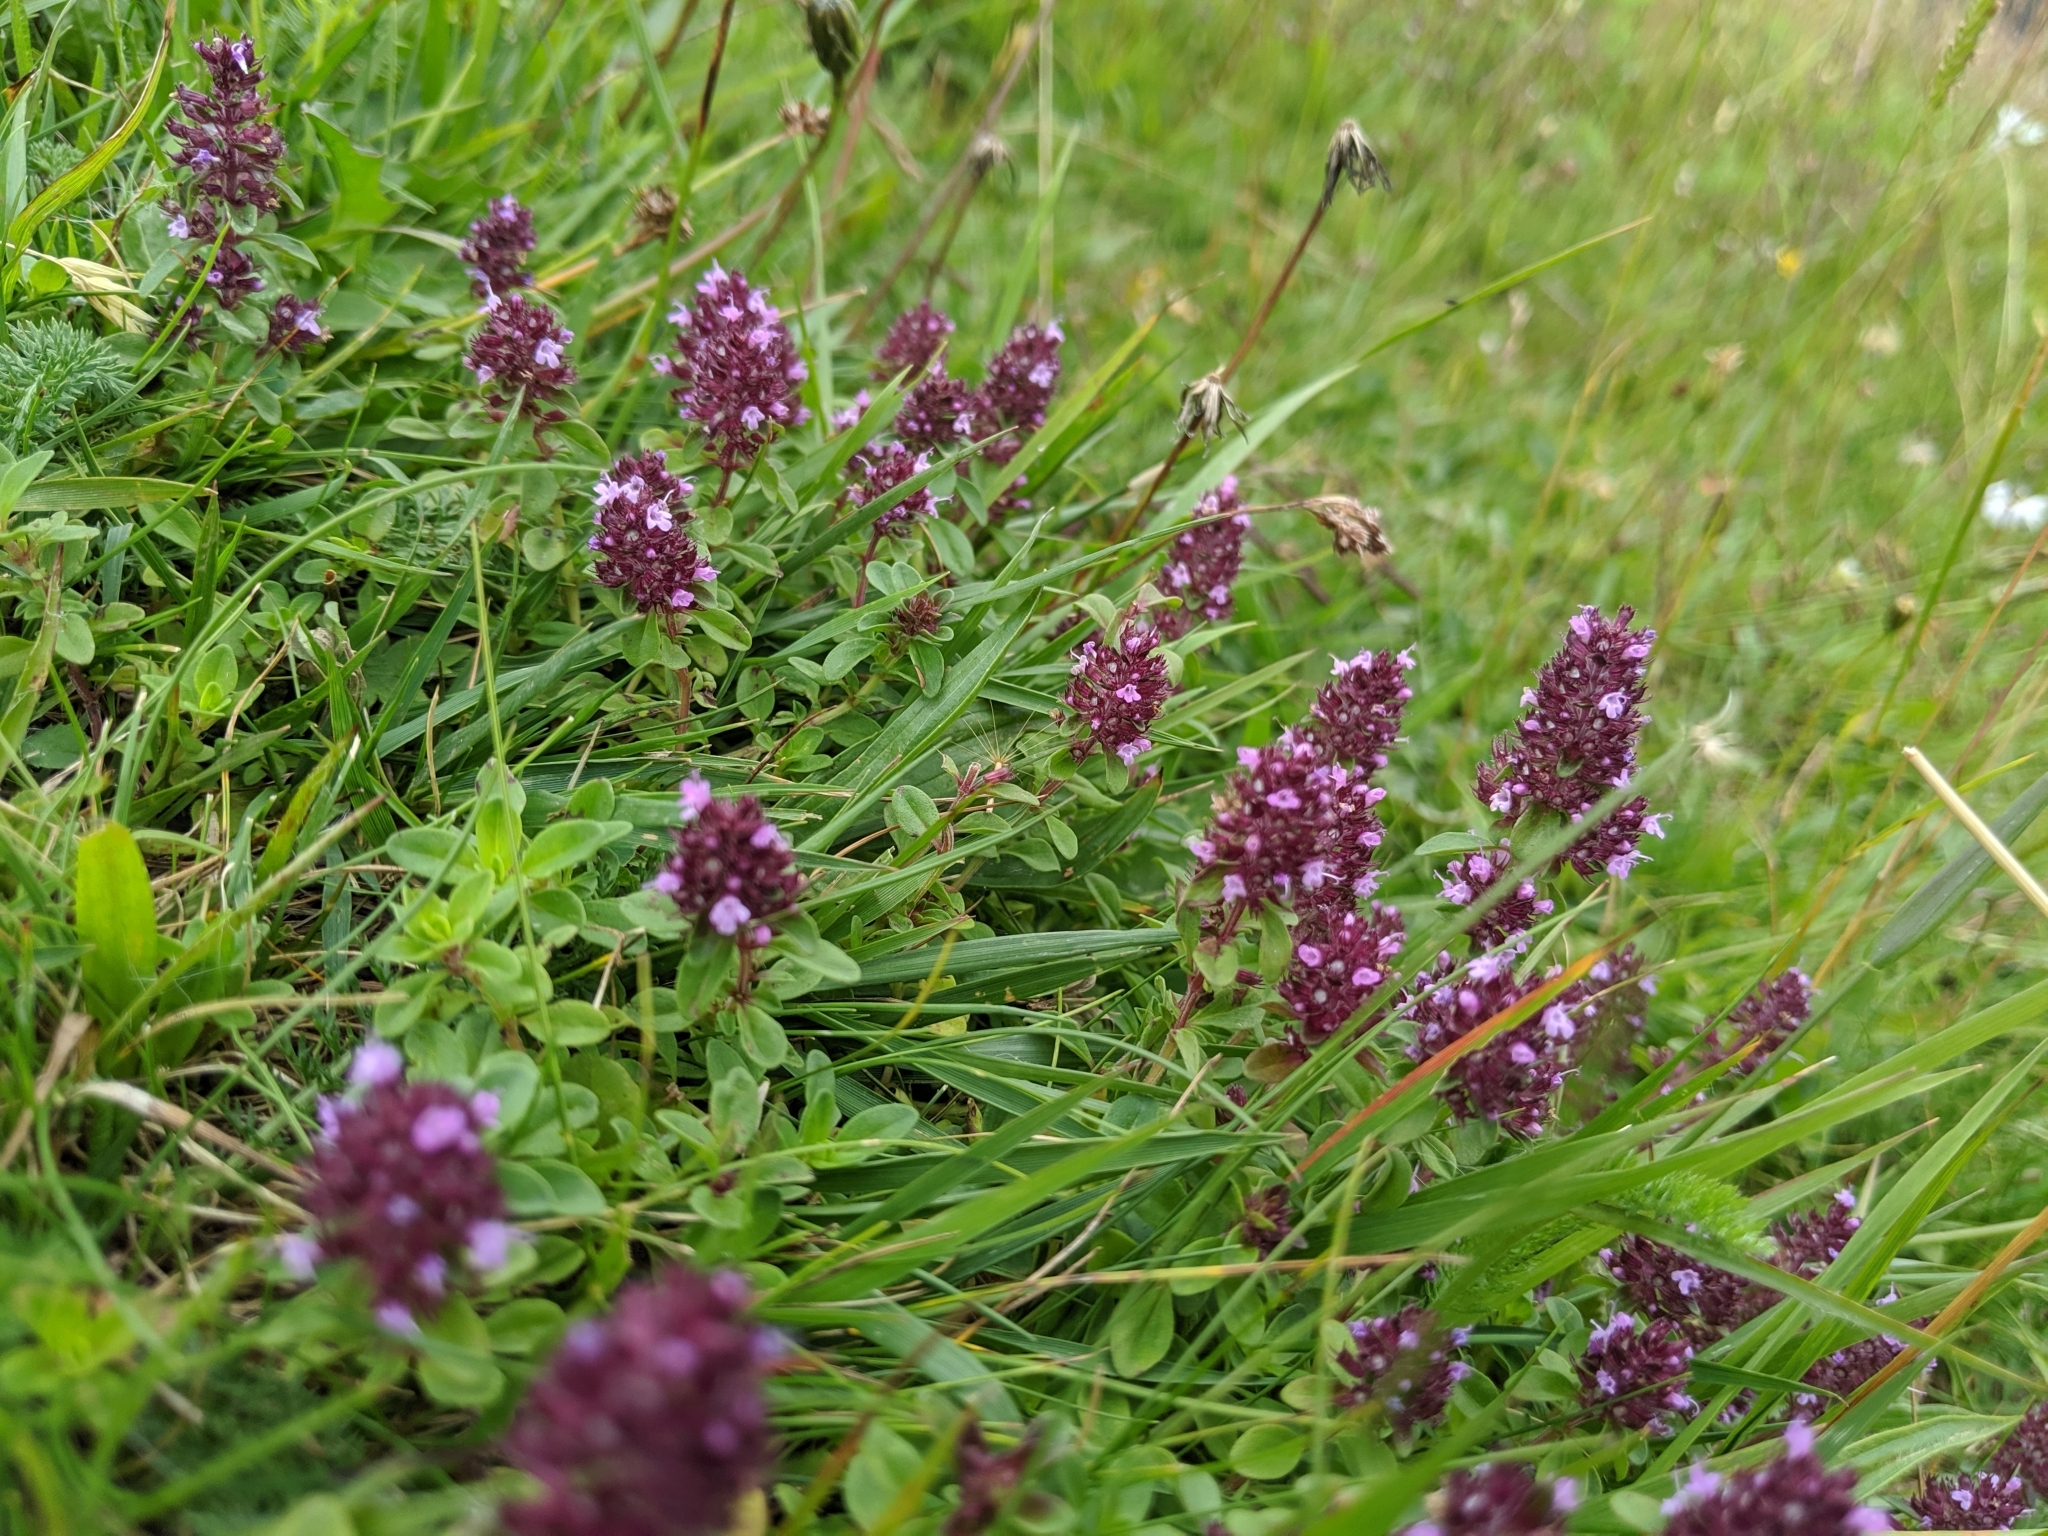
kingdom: Plantae
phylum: Tracheophyta
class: Magnoliopsida
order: Lamiales
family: Lamiaceae
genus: Thymus
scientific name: Thymus pulegioides
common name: Large thyme
